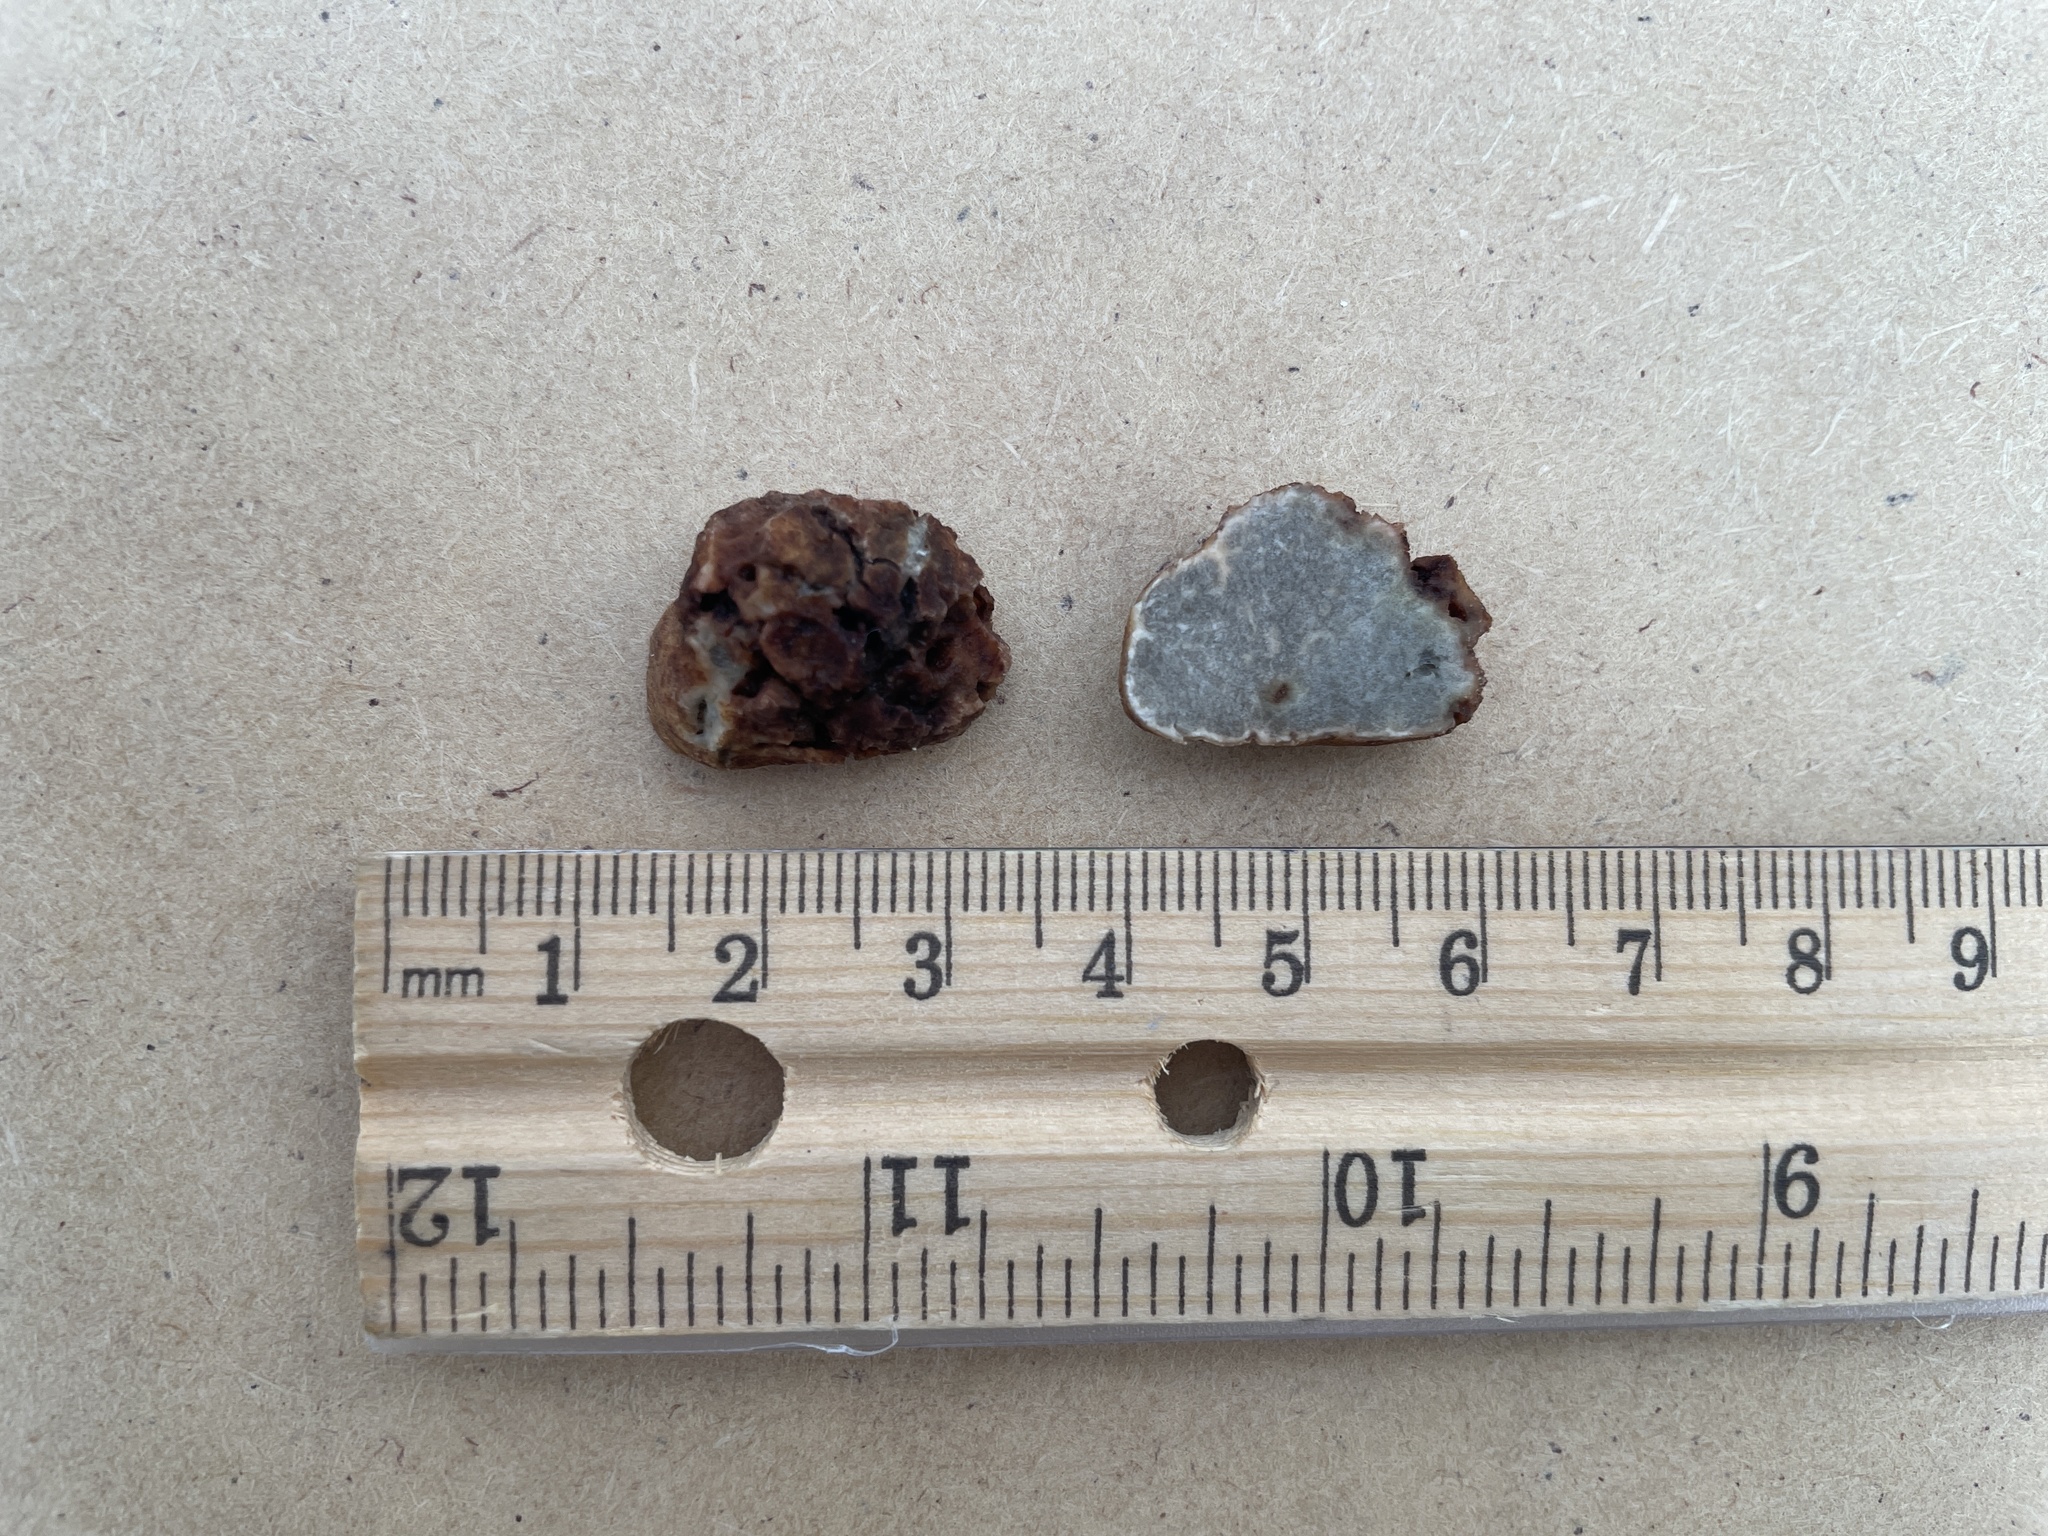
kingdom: Fungi
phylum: Ascomycota
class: Pezizomycetes
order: Pezizales
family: Morchellaceae
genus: Kalapuya
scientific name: Kalapuya brunnea
